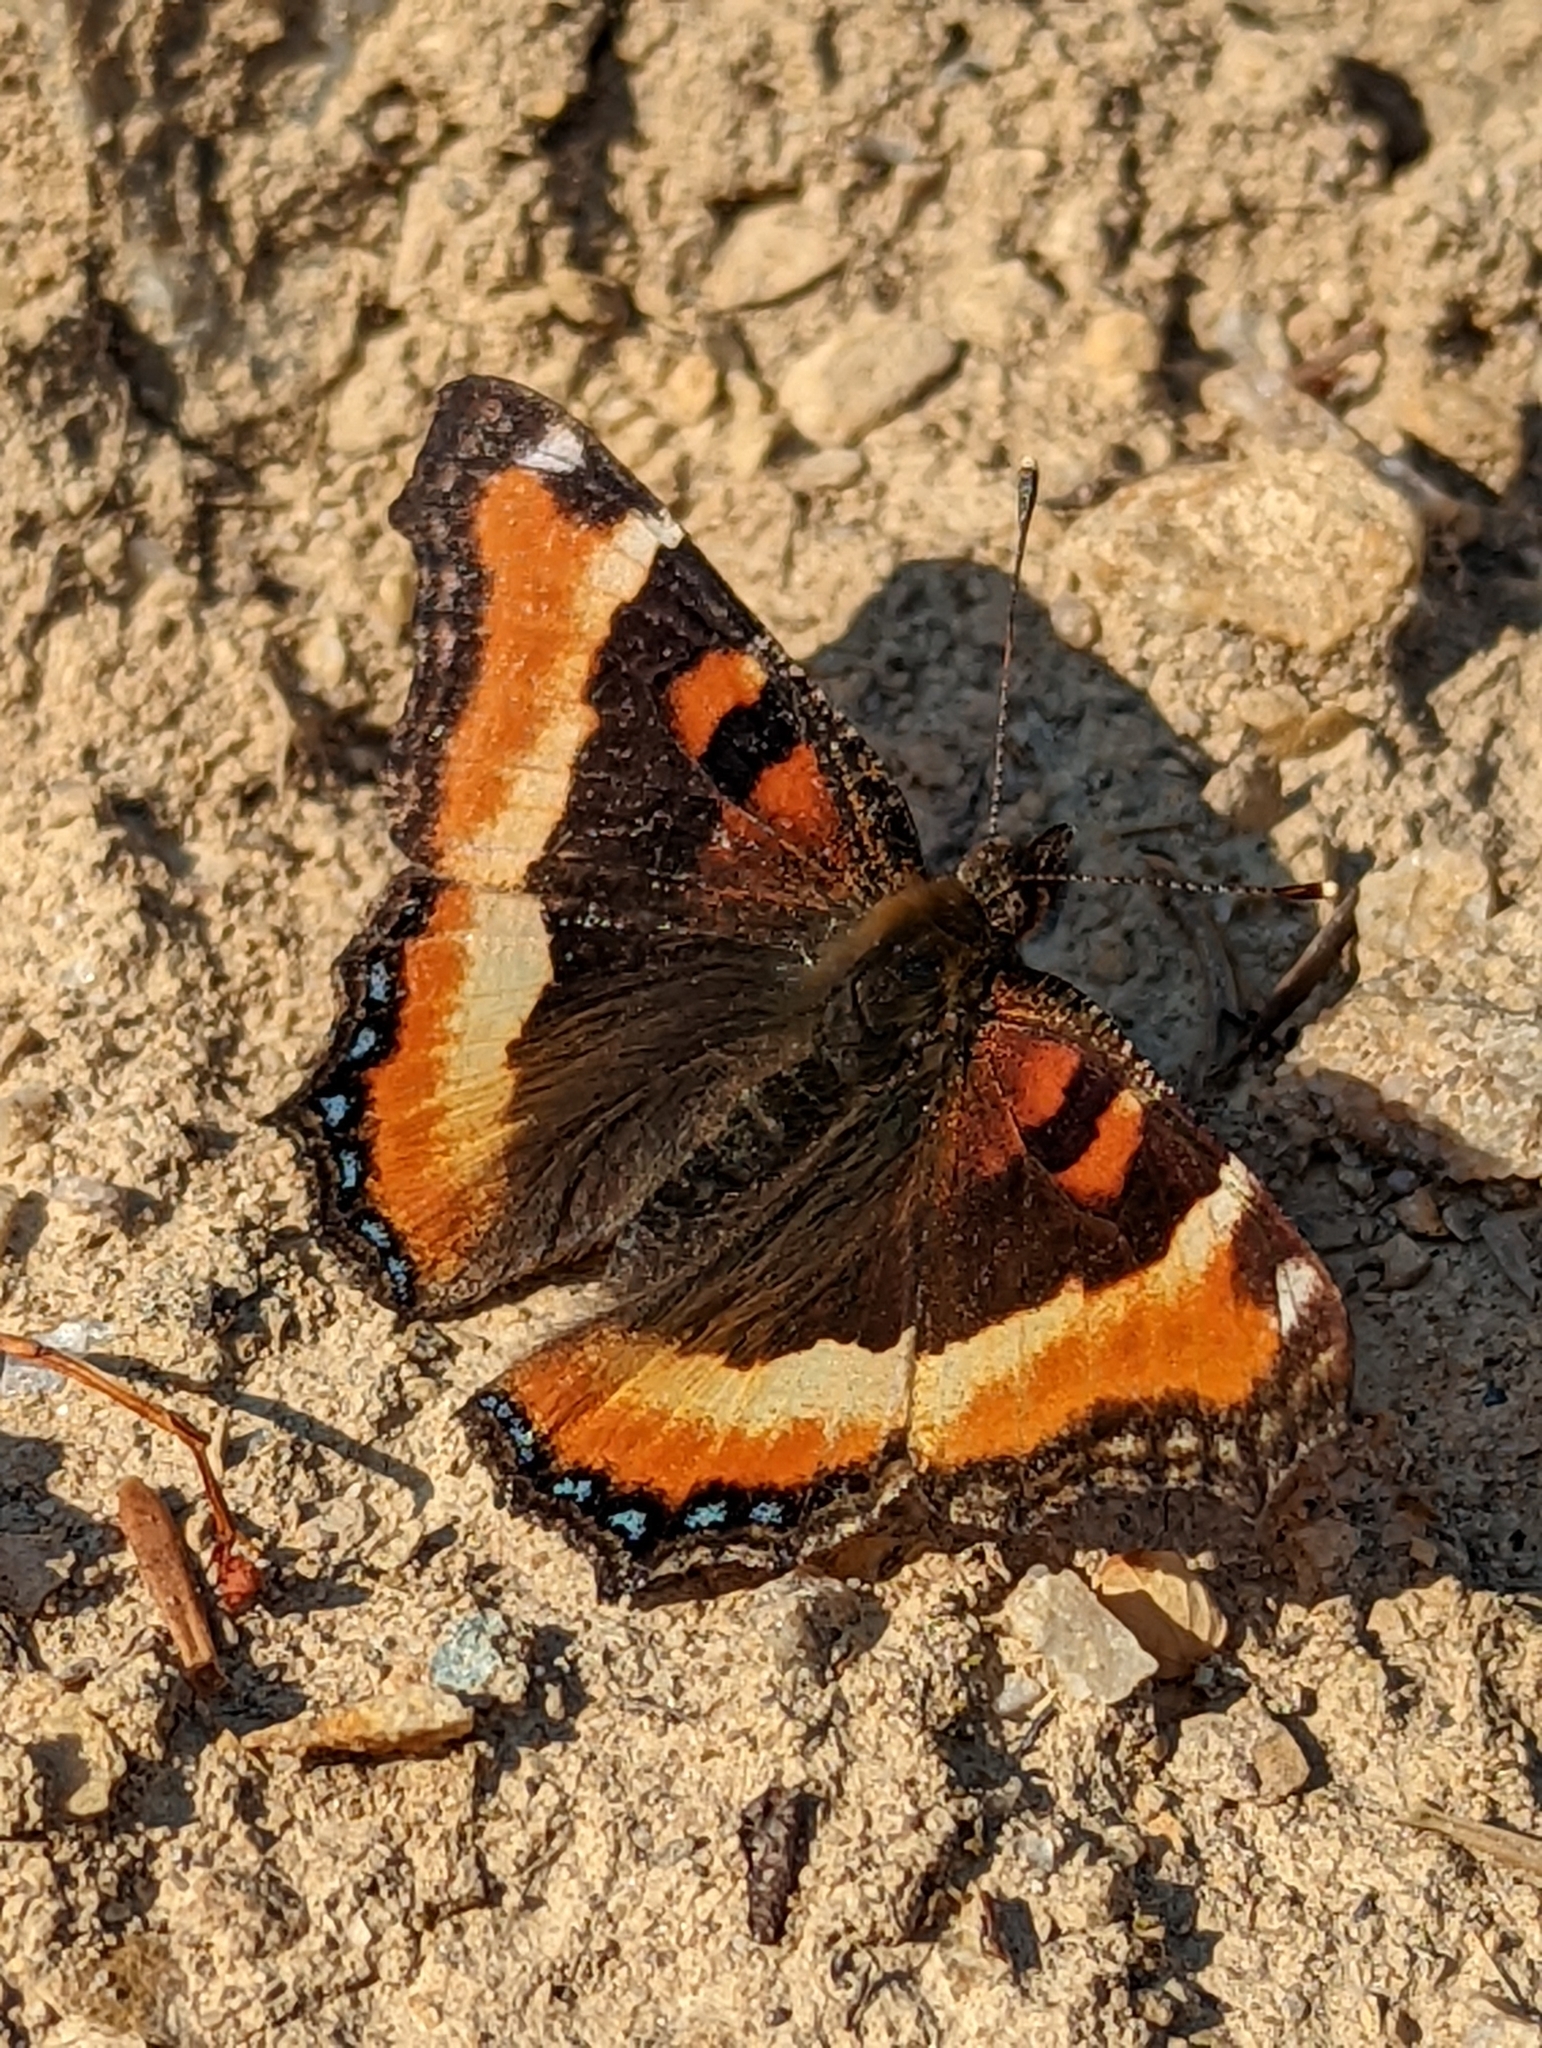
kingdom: Animalia
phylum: Arthropoda
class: Insecta
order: Lepidoptera
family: Nymphalidae
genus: Aglais
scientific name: Aglais milberti
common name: Milbert's tortoiseshell
